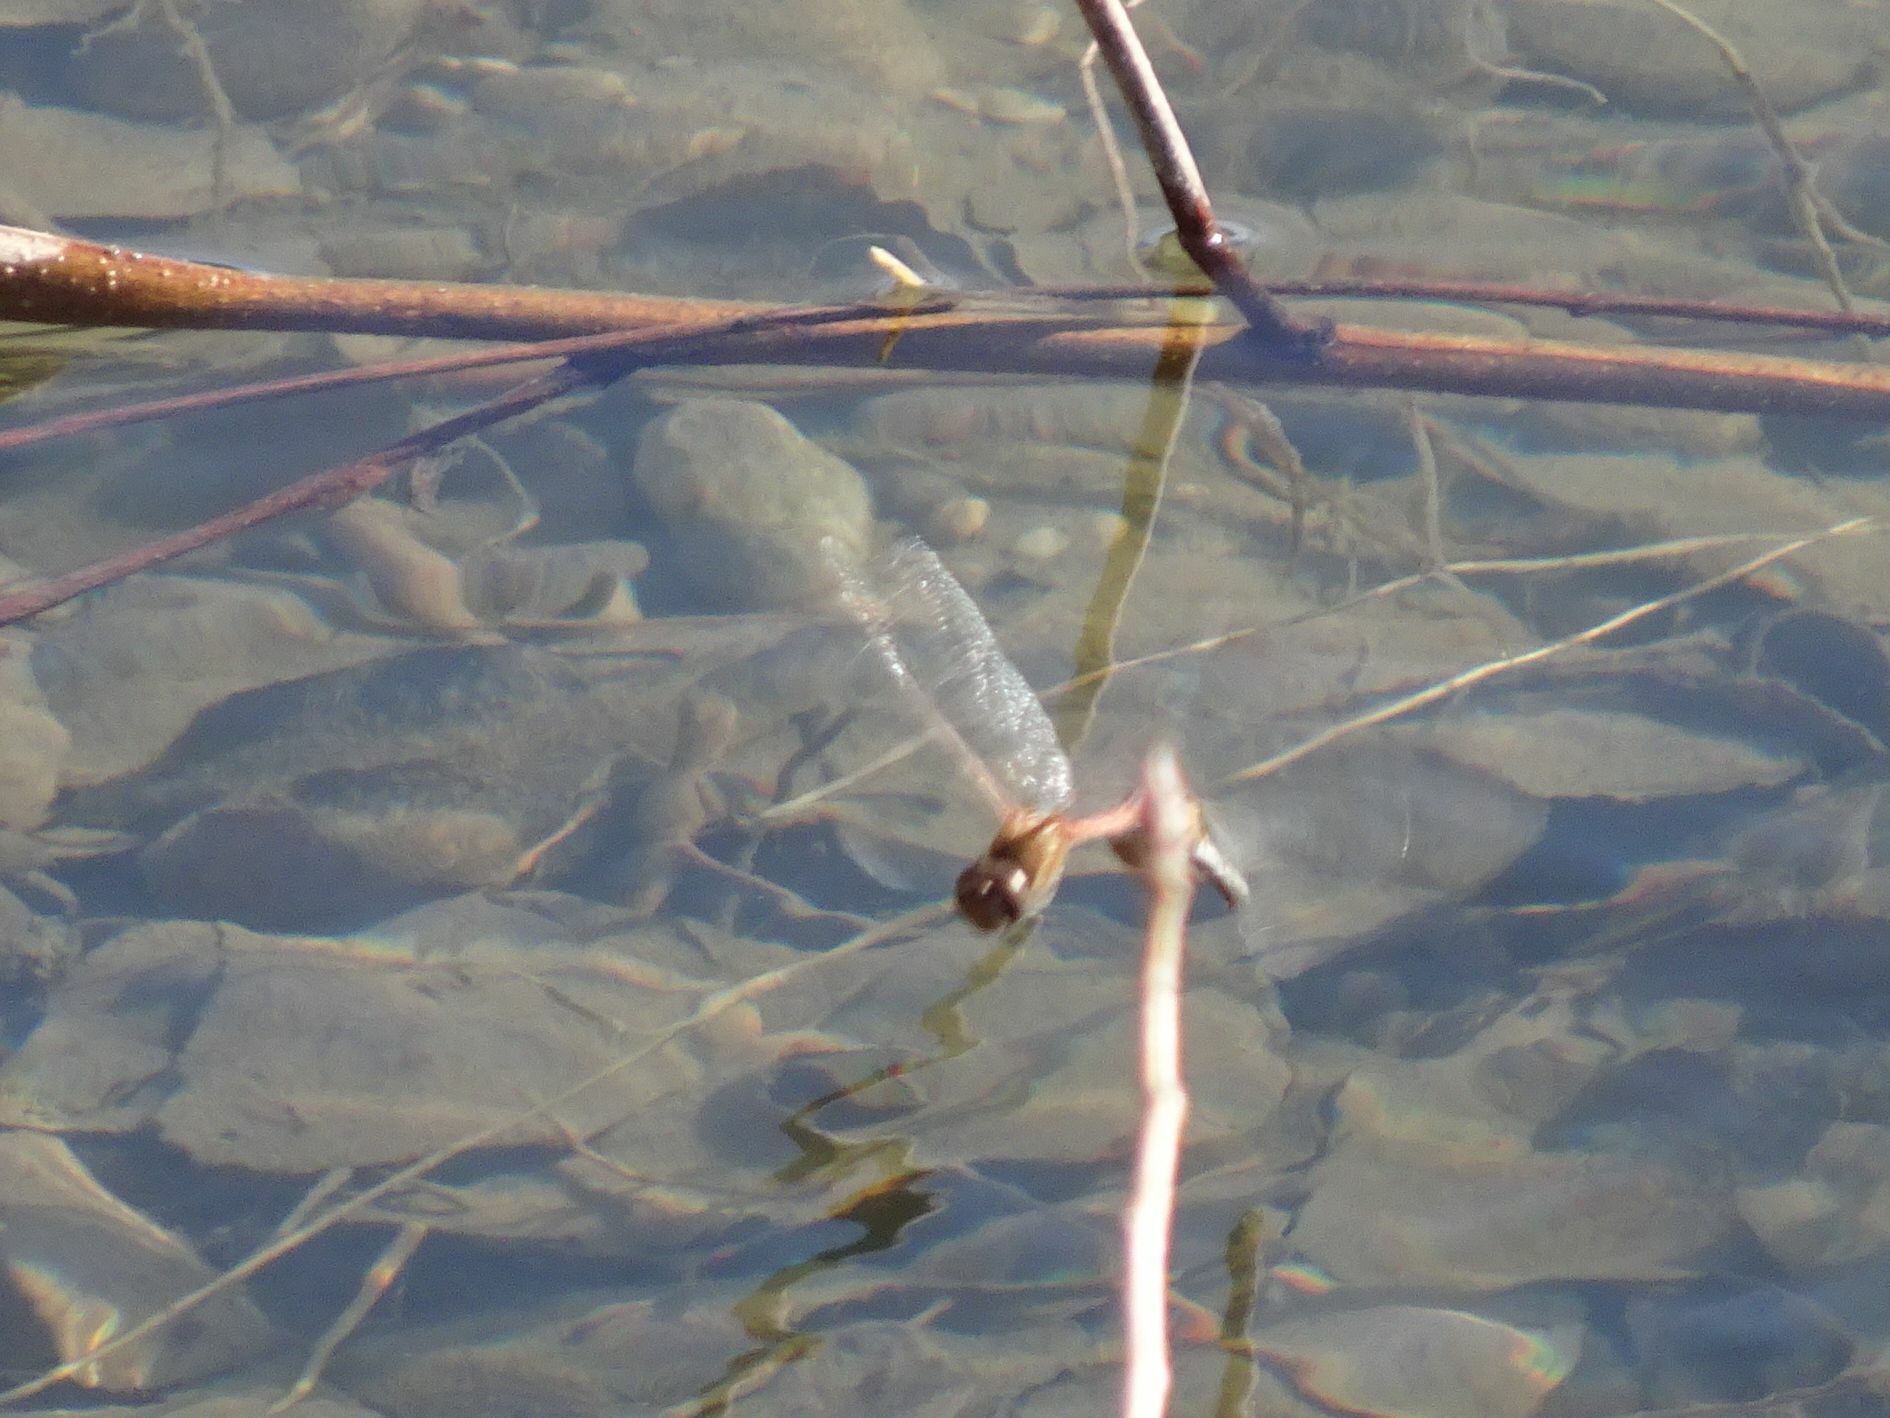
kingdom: Animalia
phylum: Arthropoda
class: Insecta
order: Odonata
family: Libellulidae
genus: Sympetrum
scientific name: Sympetrum striolatum
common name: Common darter
